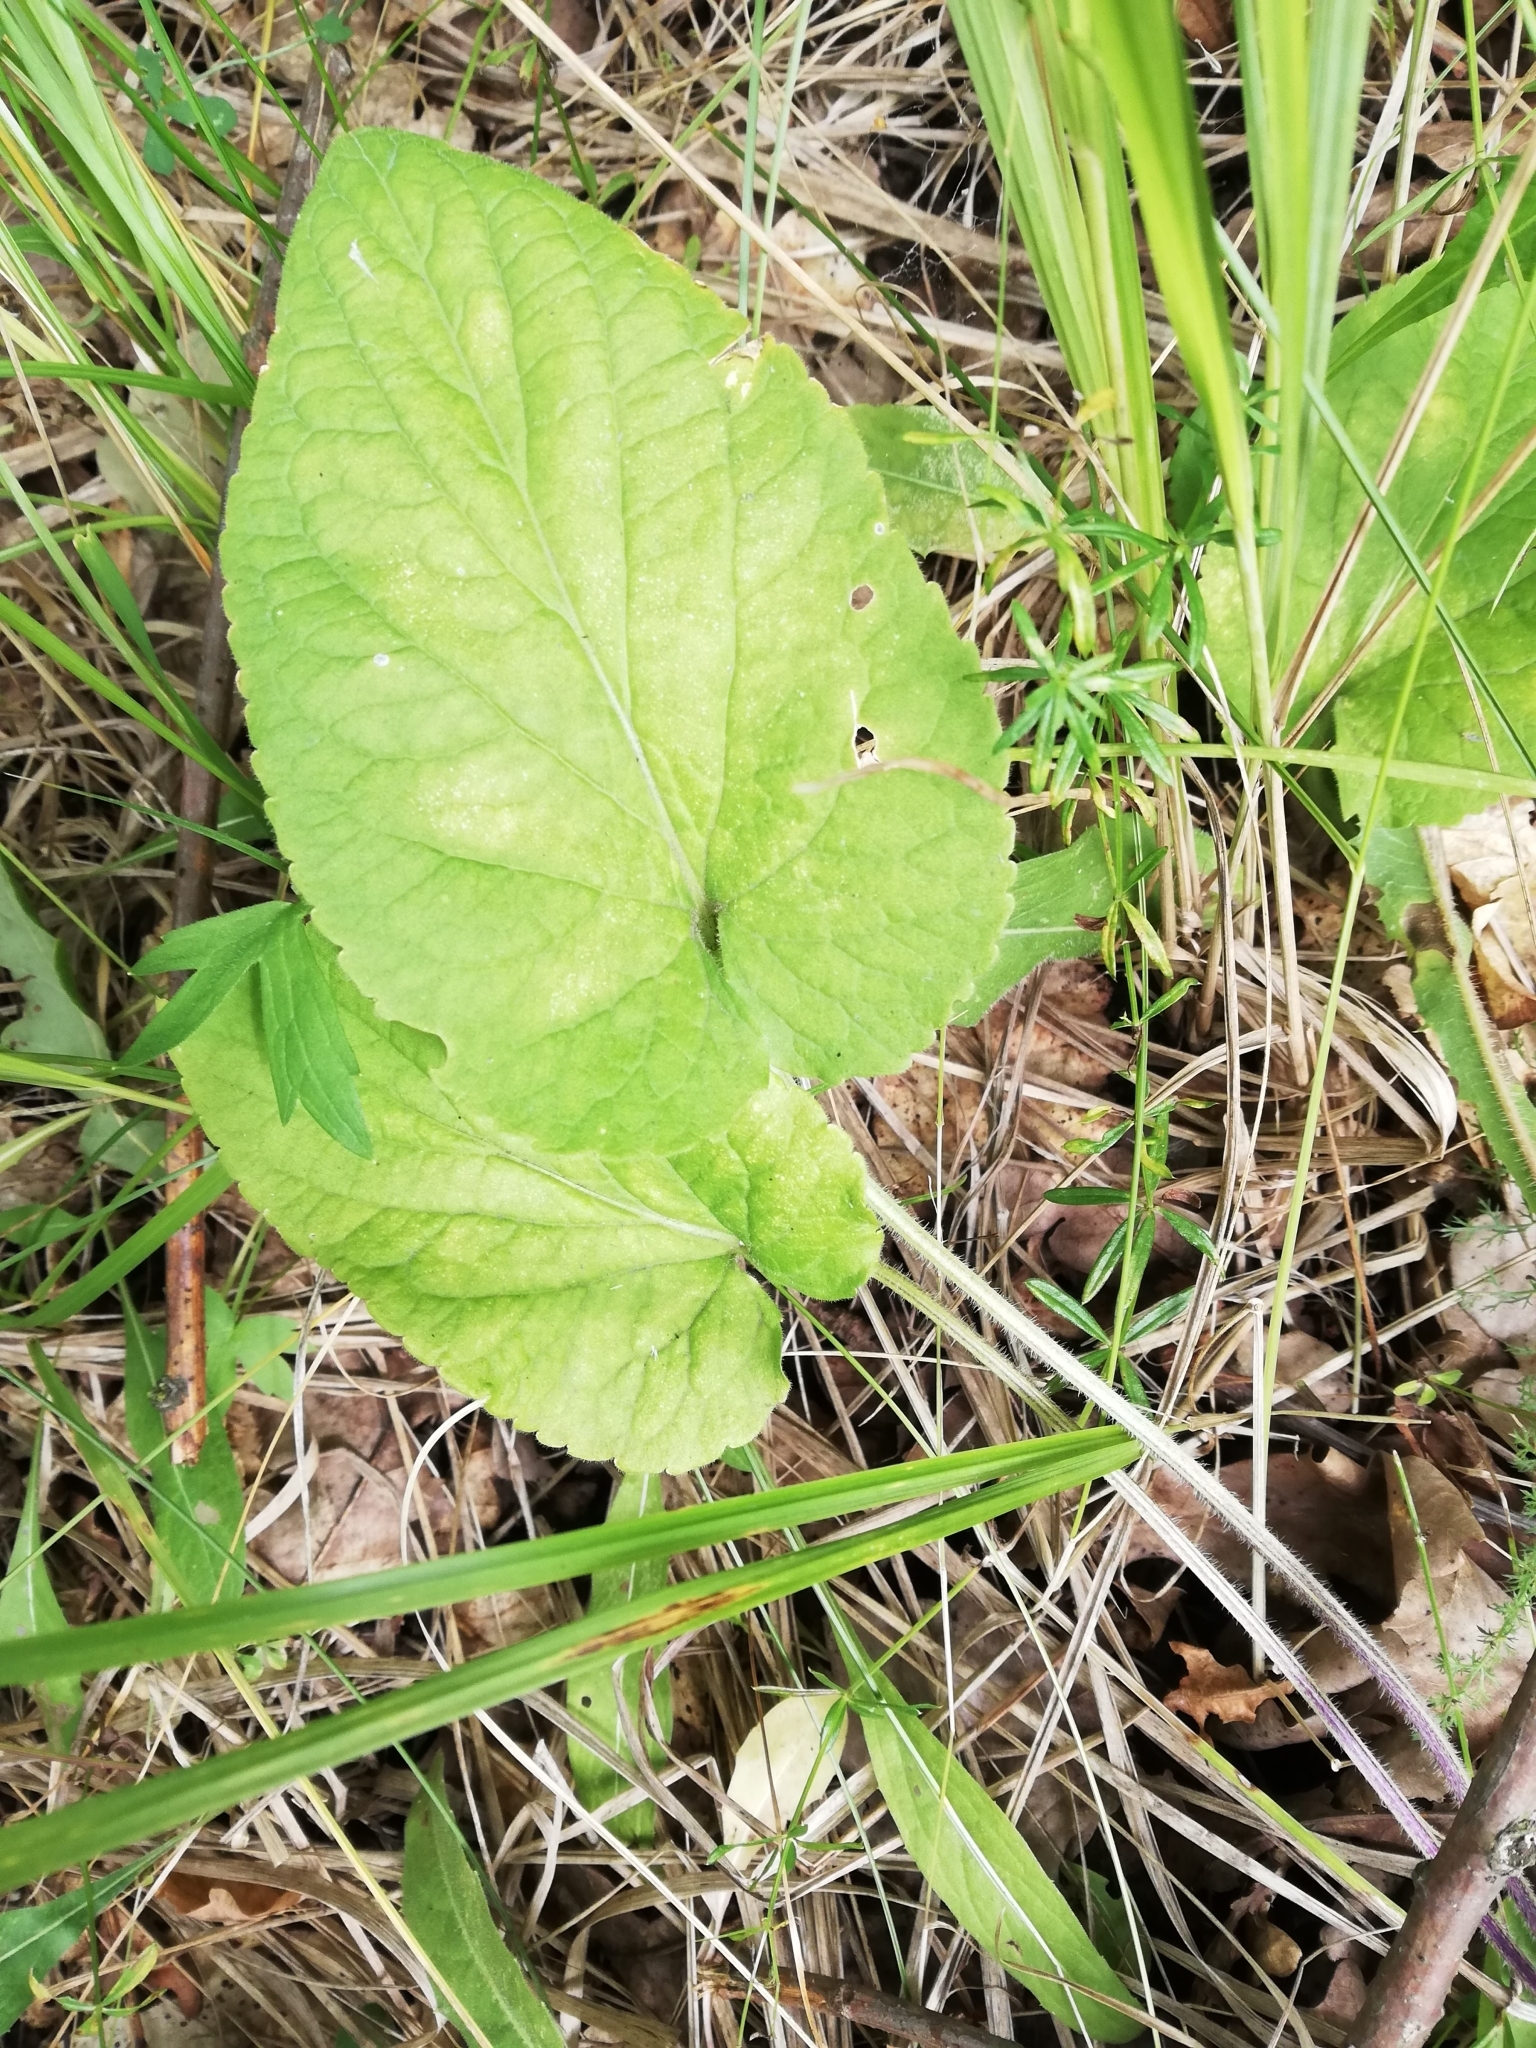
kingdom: Plantae
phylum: Tracheophyta
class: Magnoliopsida
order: Malpighiales
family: Violaceae
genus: Viola
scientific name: Viola hirta
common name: Hairy violet
